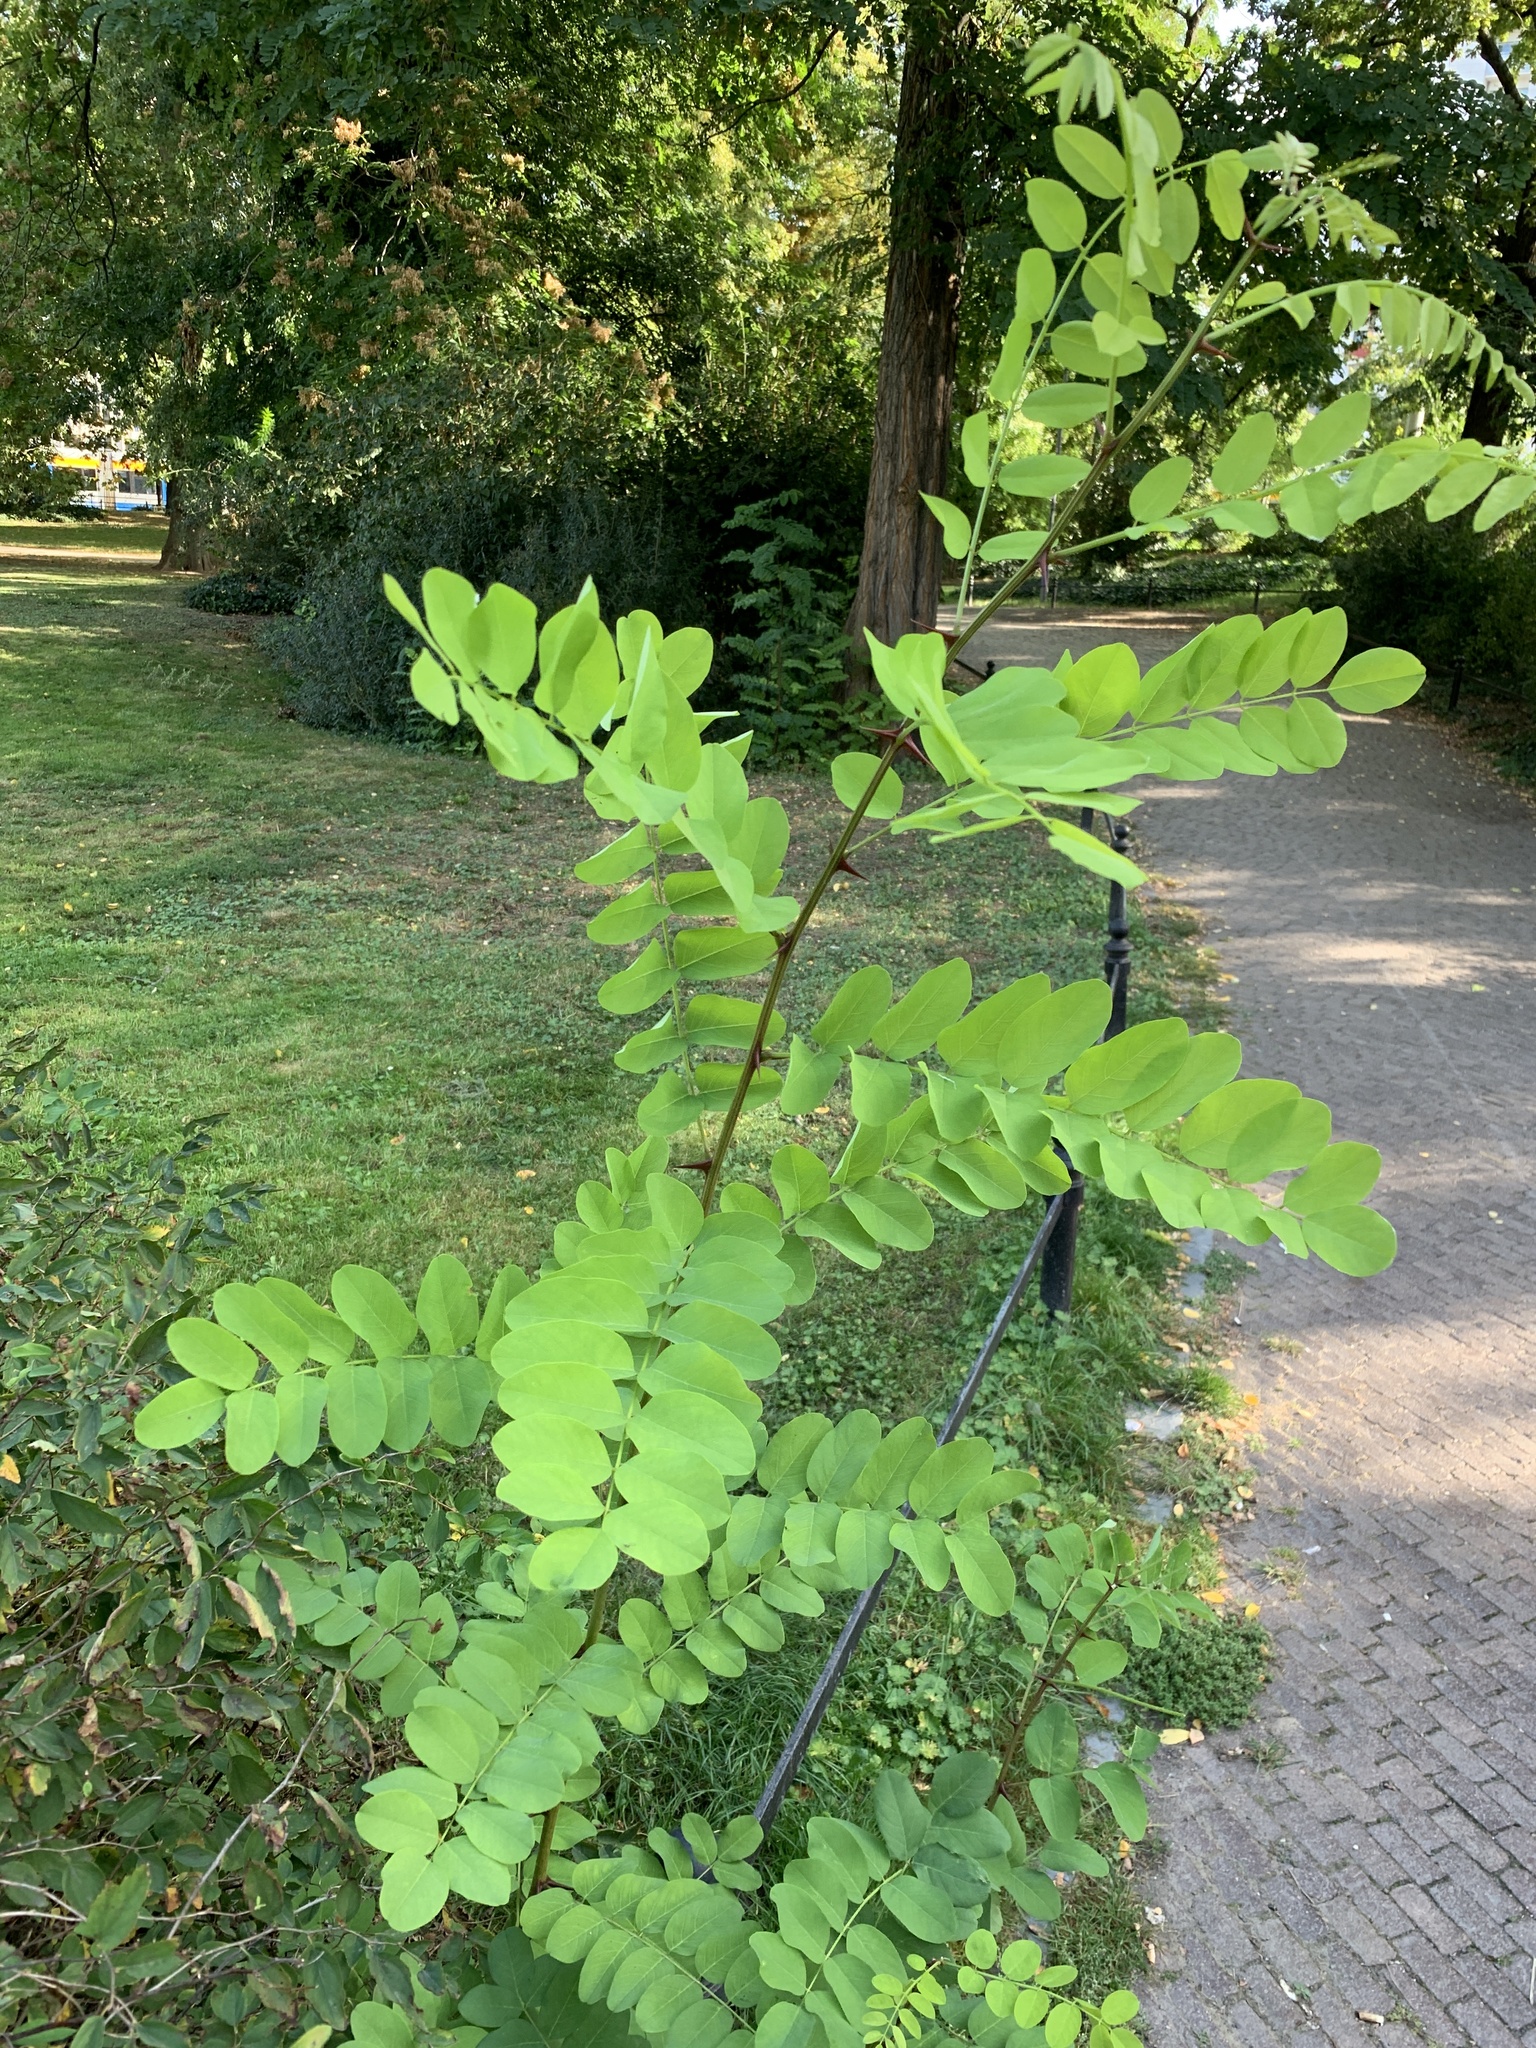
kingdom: Plantae
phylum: Tracheophyta
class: Magnoliopsida
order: Fabales
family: Fabaceae
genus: Robinia
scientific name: Robinia pseudoacacia
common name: Black locust
